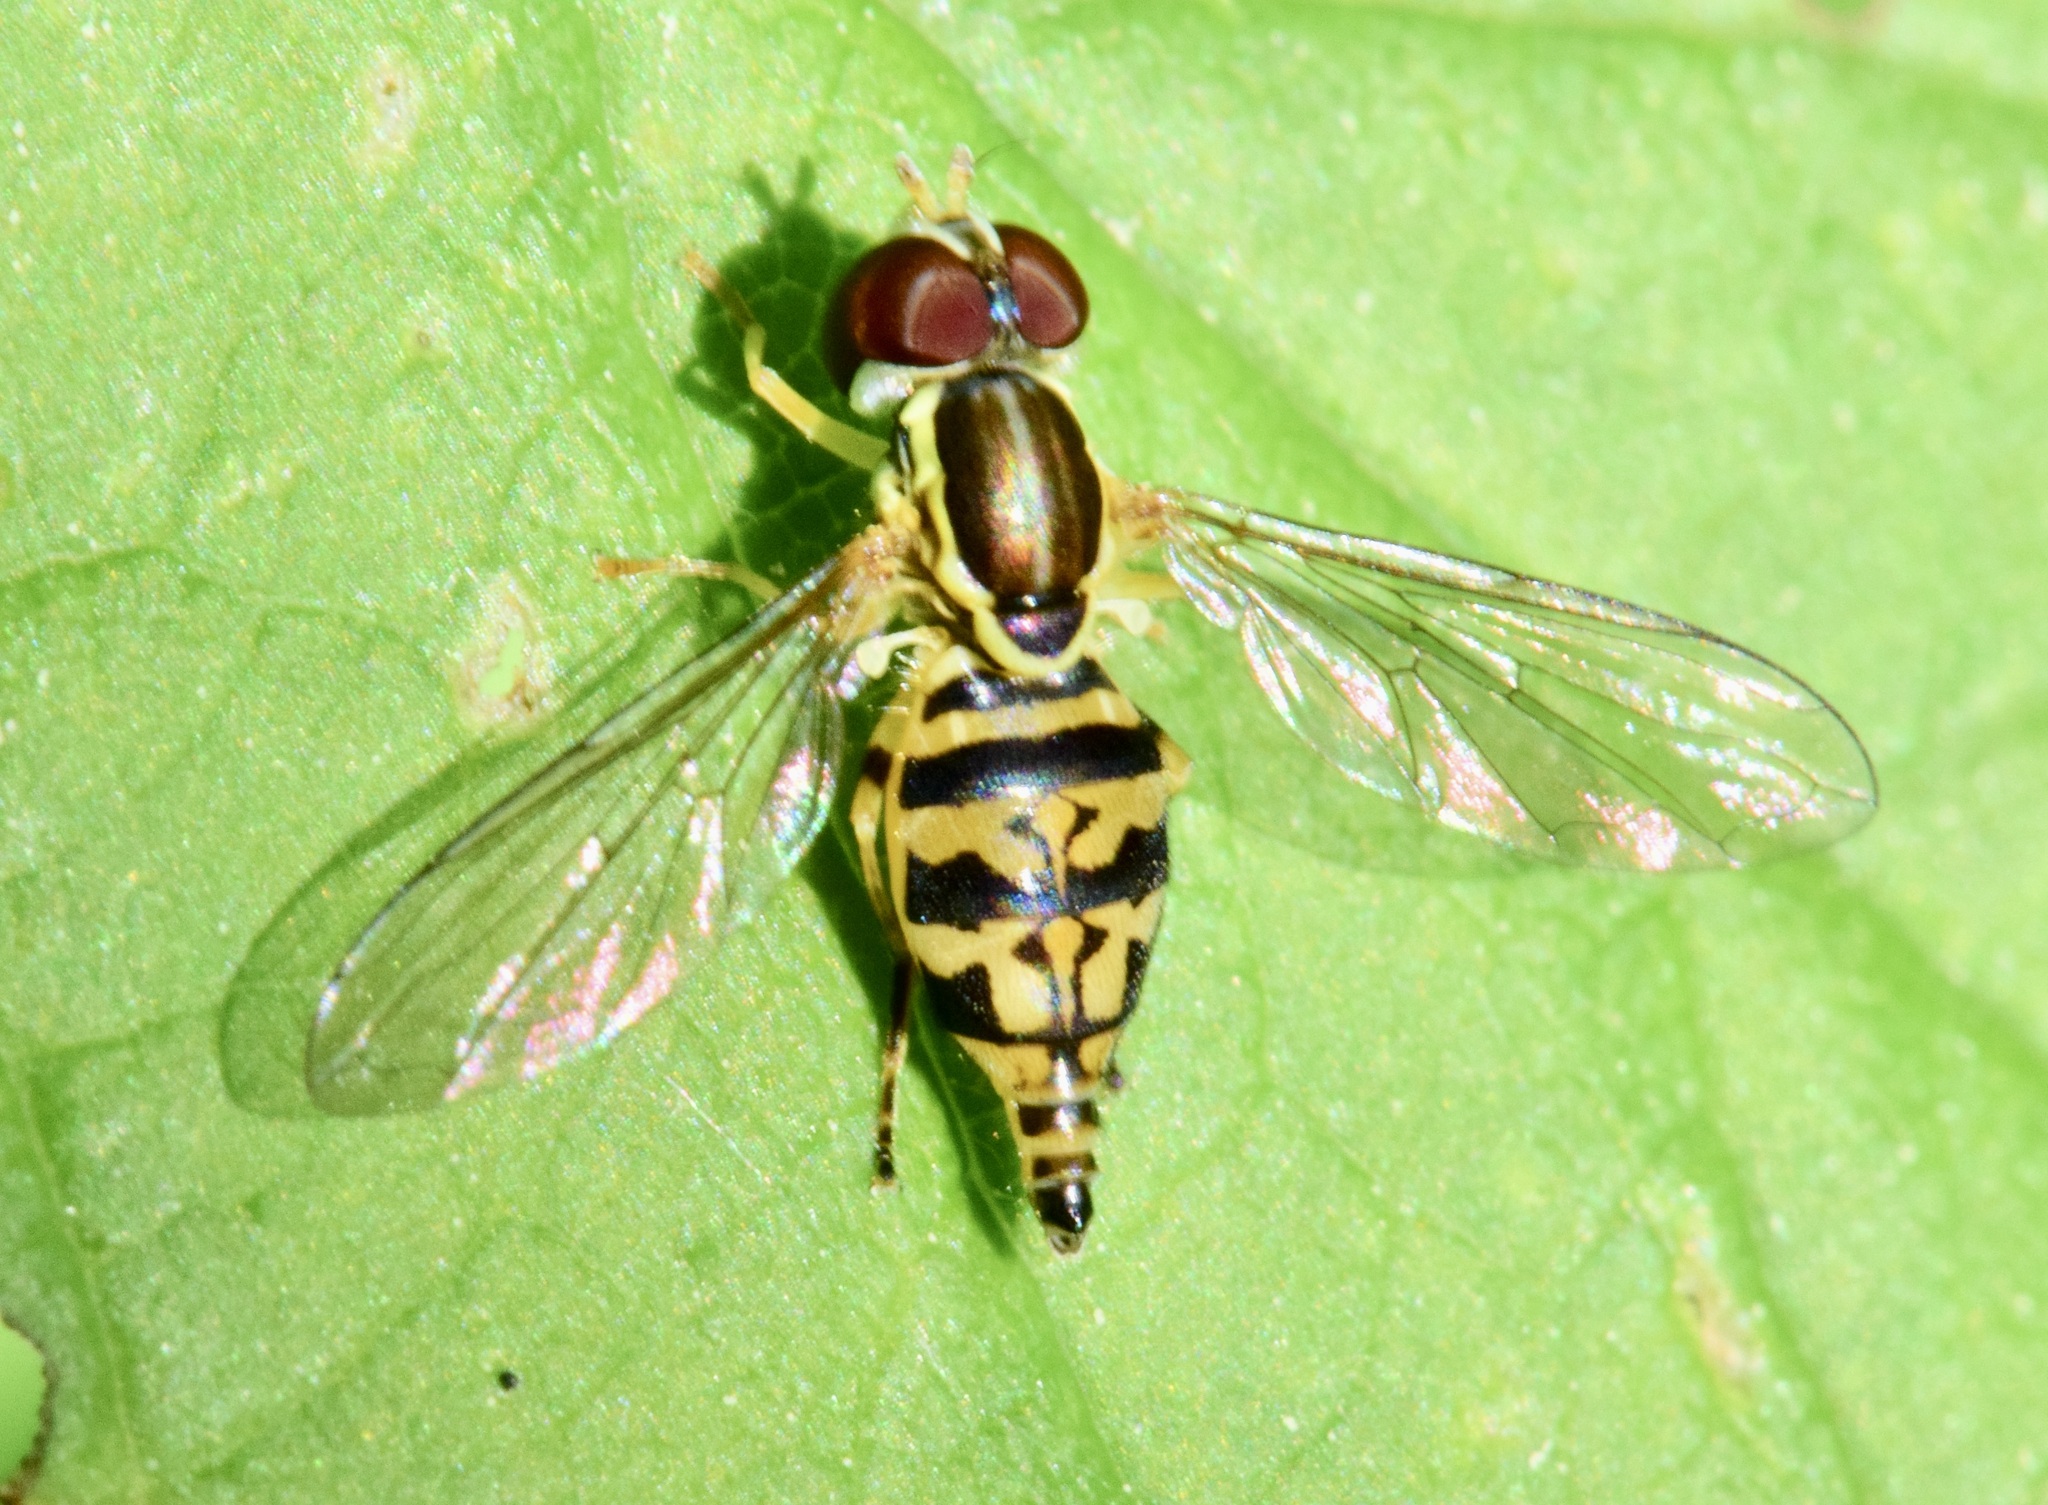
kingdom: Animalia
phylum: Arthropoda
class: Insecta
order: Diptera
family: Syrphidae
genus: Toxomerus
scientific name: Toxomerus geminatus
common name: Eastern calligrapher
